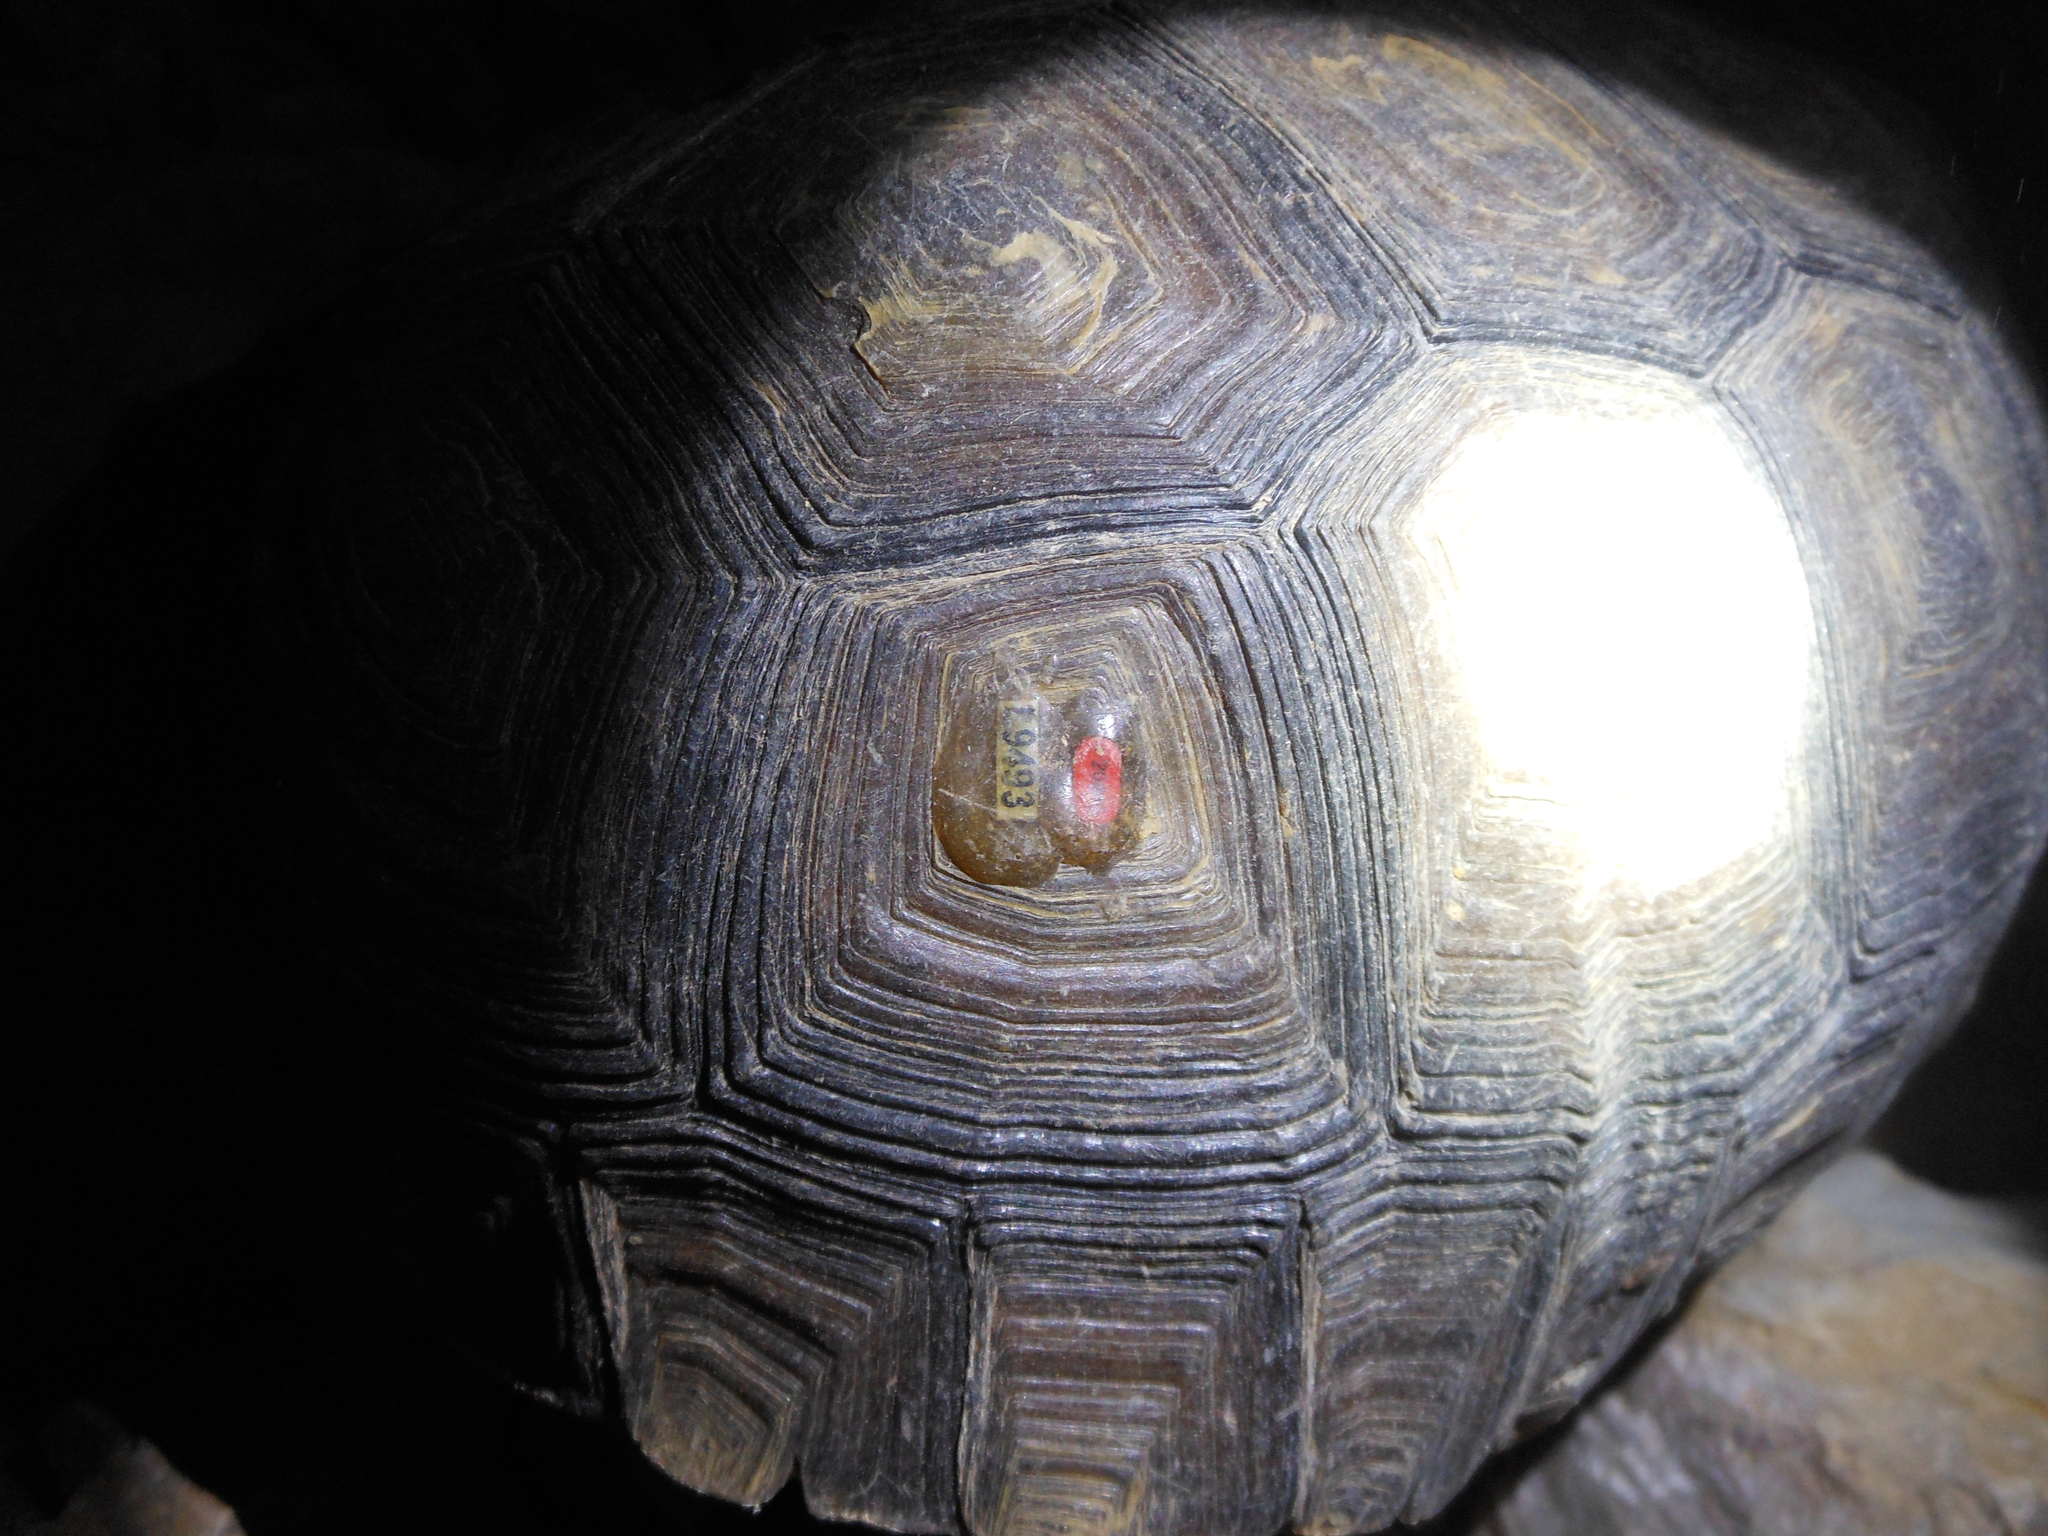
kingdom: Animalia
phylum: Chordata
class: Testudines
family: Testudinidae
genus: Gopherus
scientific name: Gopherus agassizii
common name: Mojave desert tortoise
